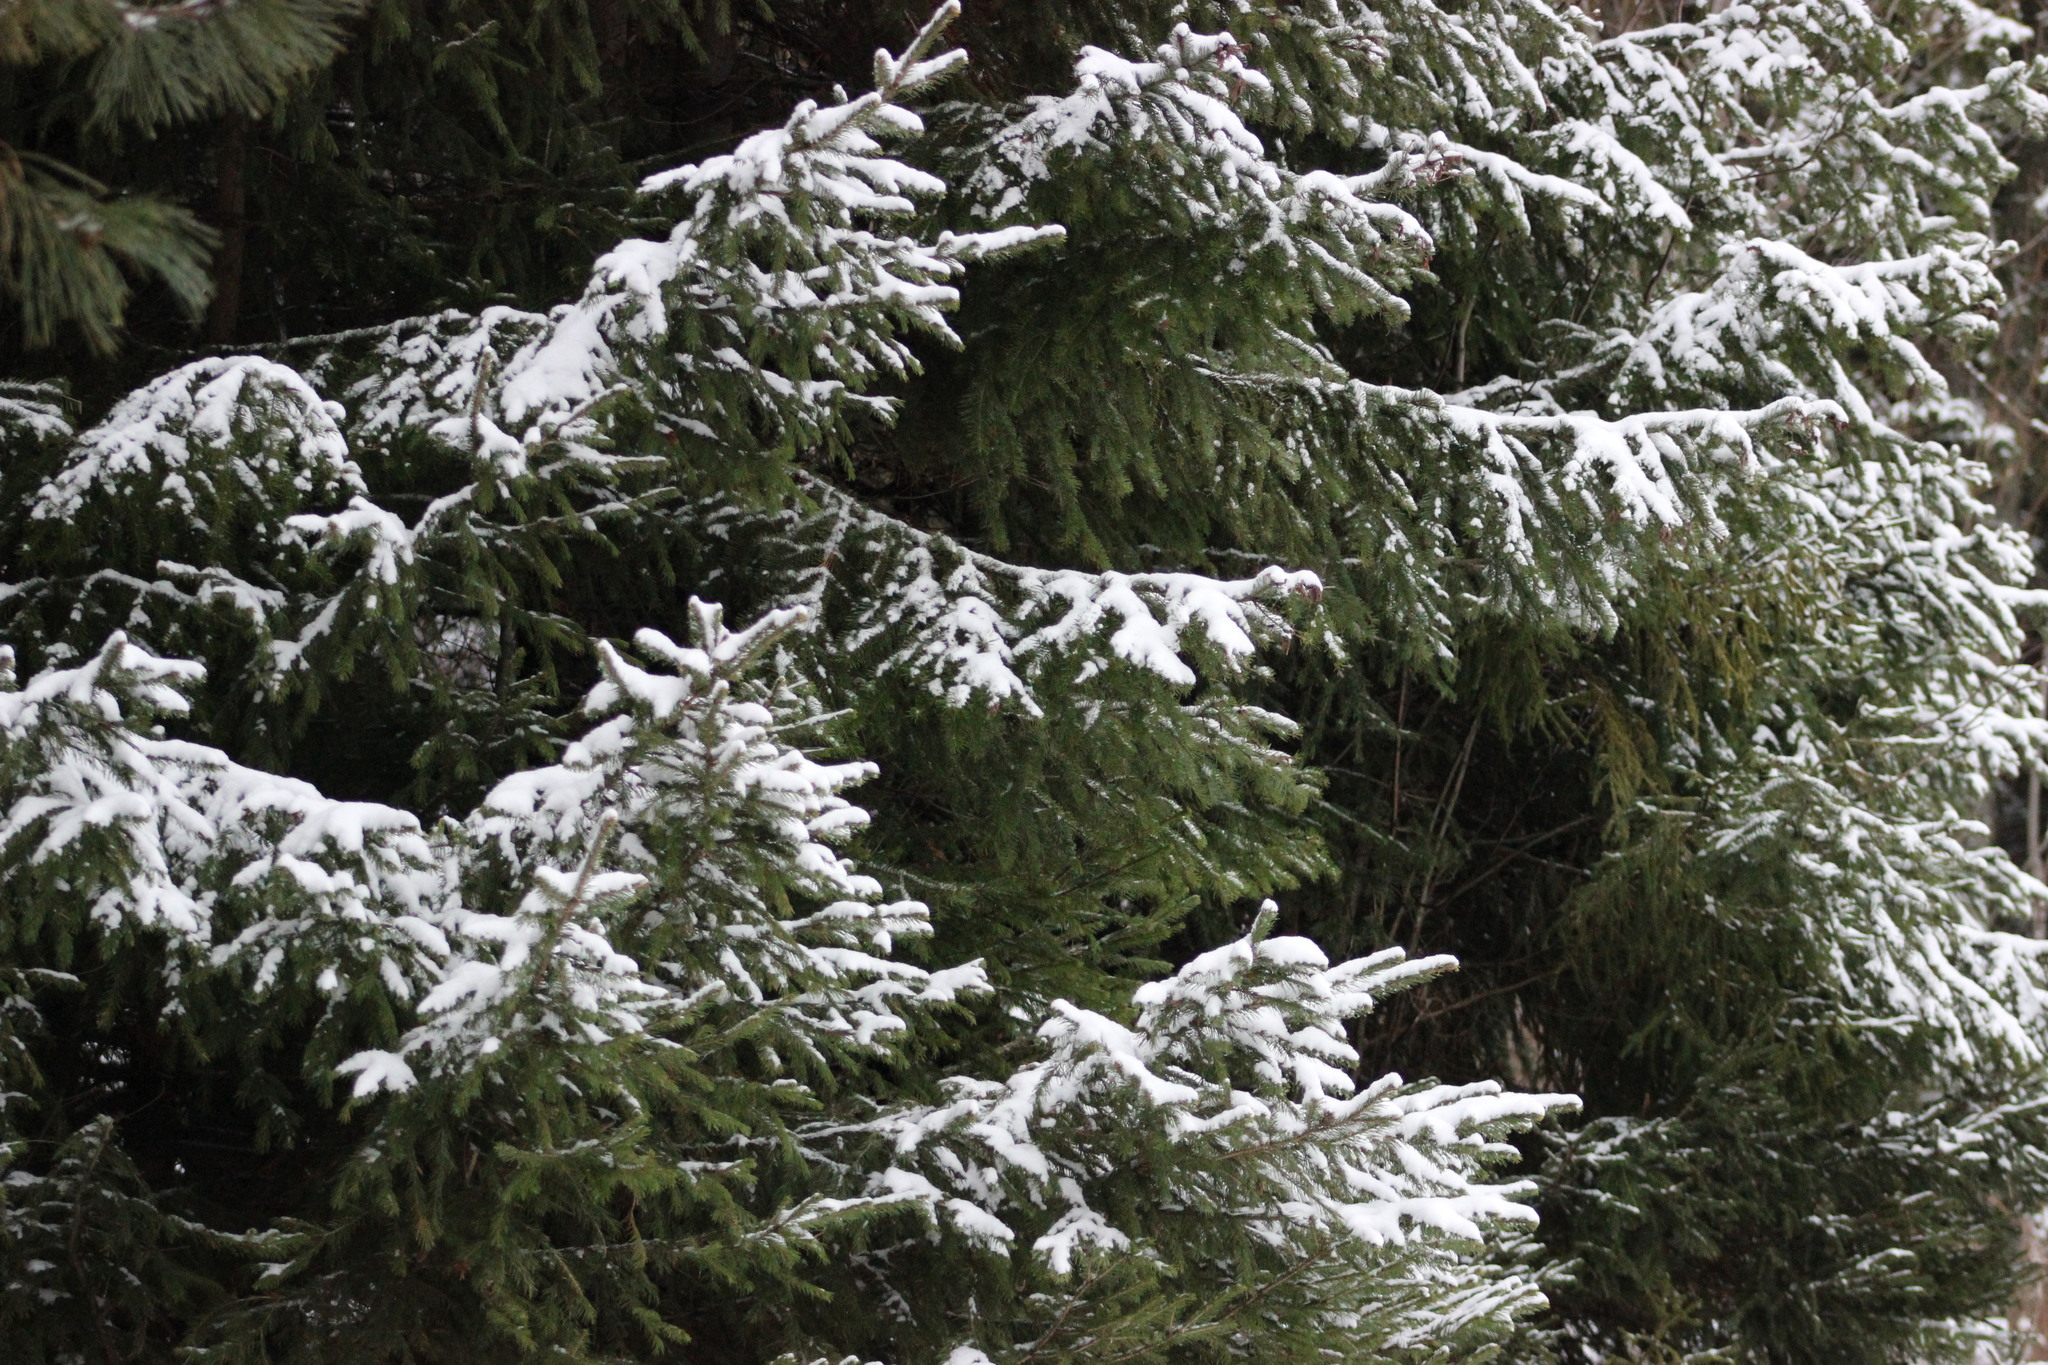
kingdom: Plantae
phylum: Tracheophyta
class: Pinopsida
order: Pinales
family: Pinaceae
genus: Picea
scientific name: Picea obovata
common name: Siberian spruce
